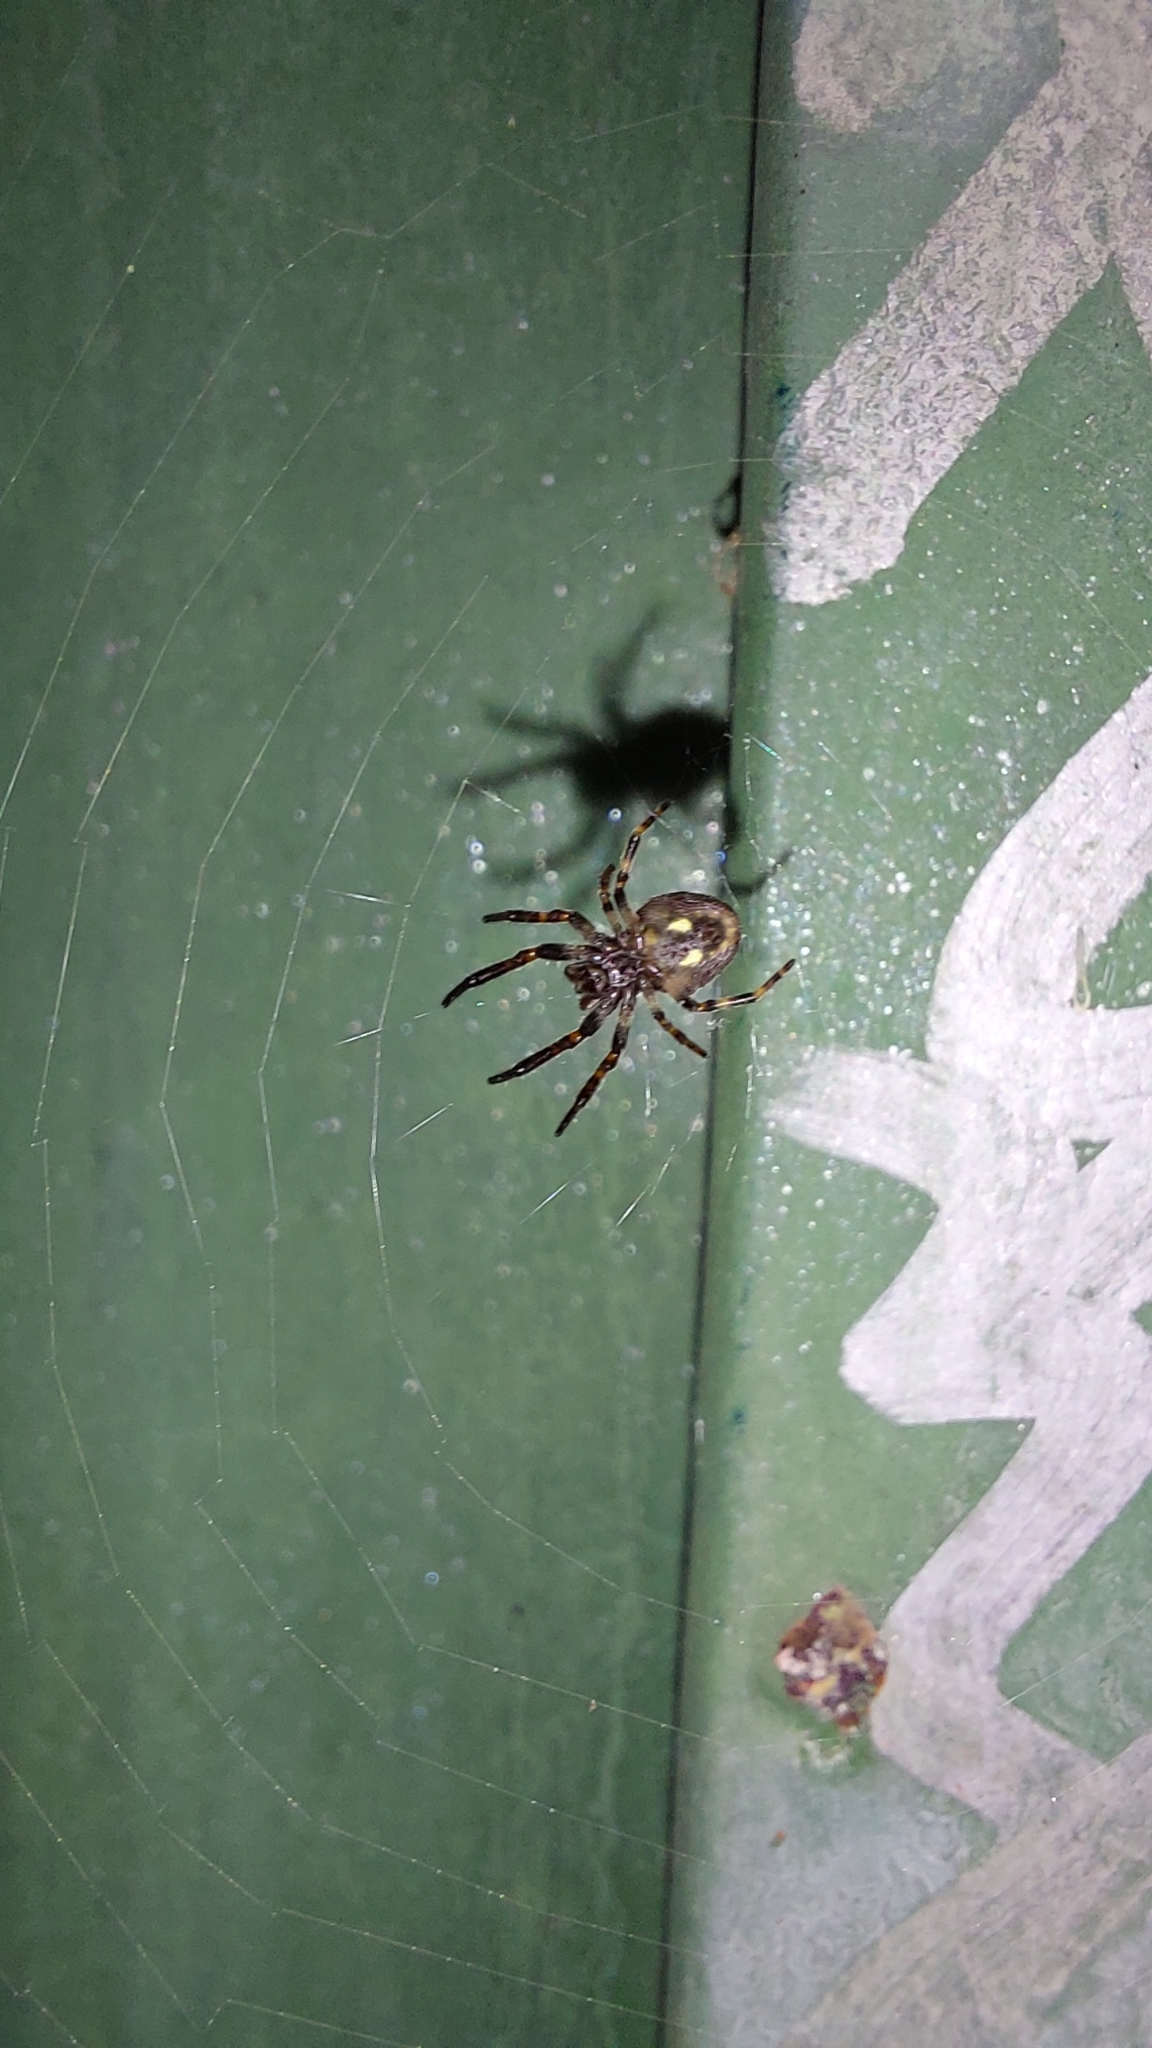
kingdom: Animalia
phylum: Arthropoda
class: Arachnida
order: Araneae
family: Araneidae
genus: Nuctenea
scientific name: Nuctenea umbratica
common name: Toad spider
